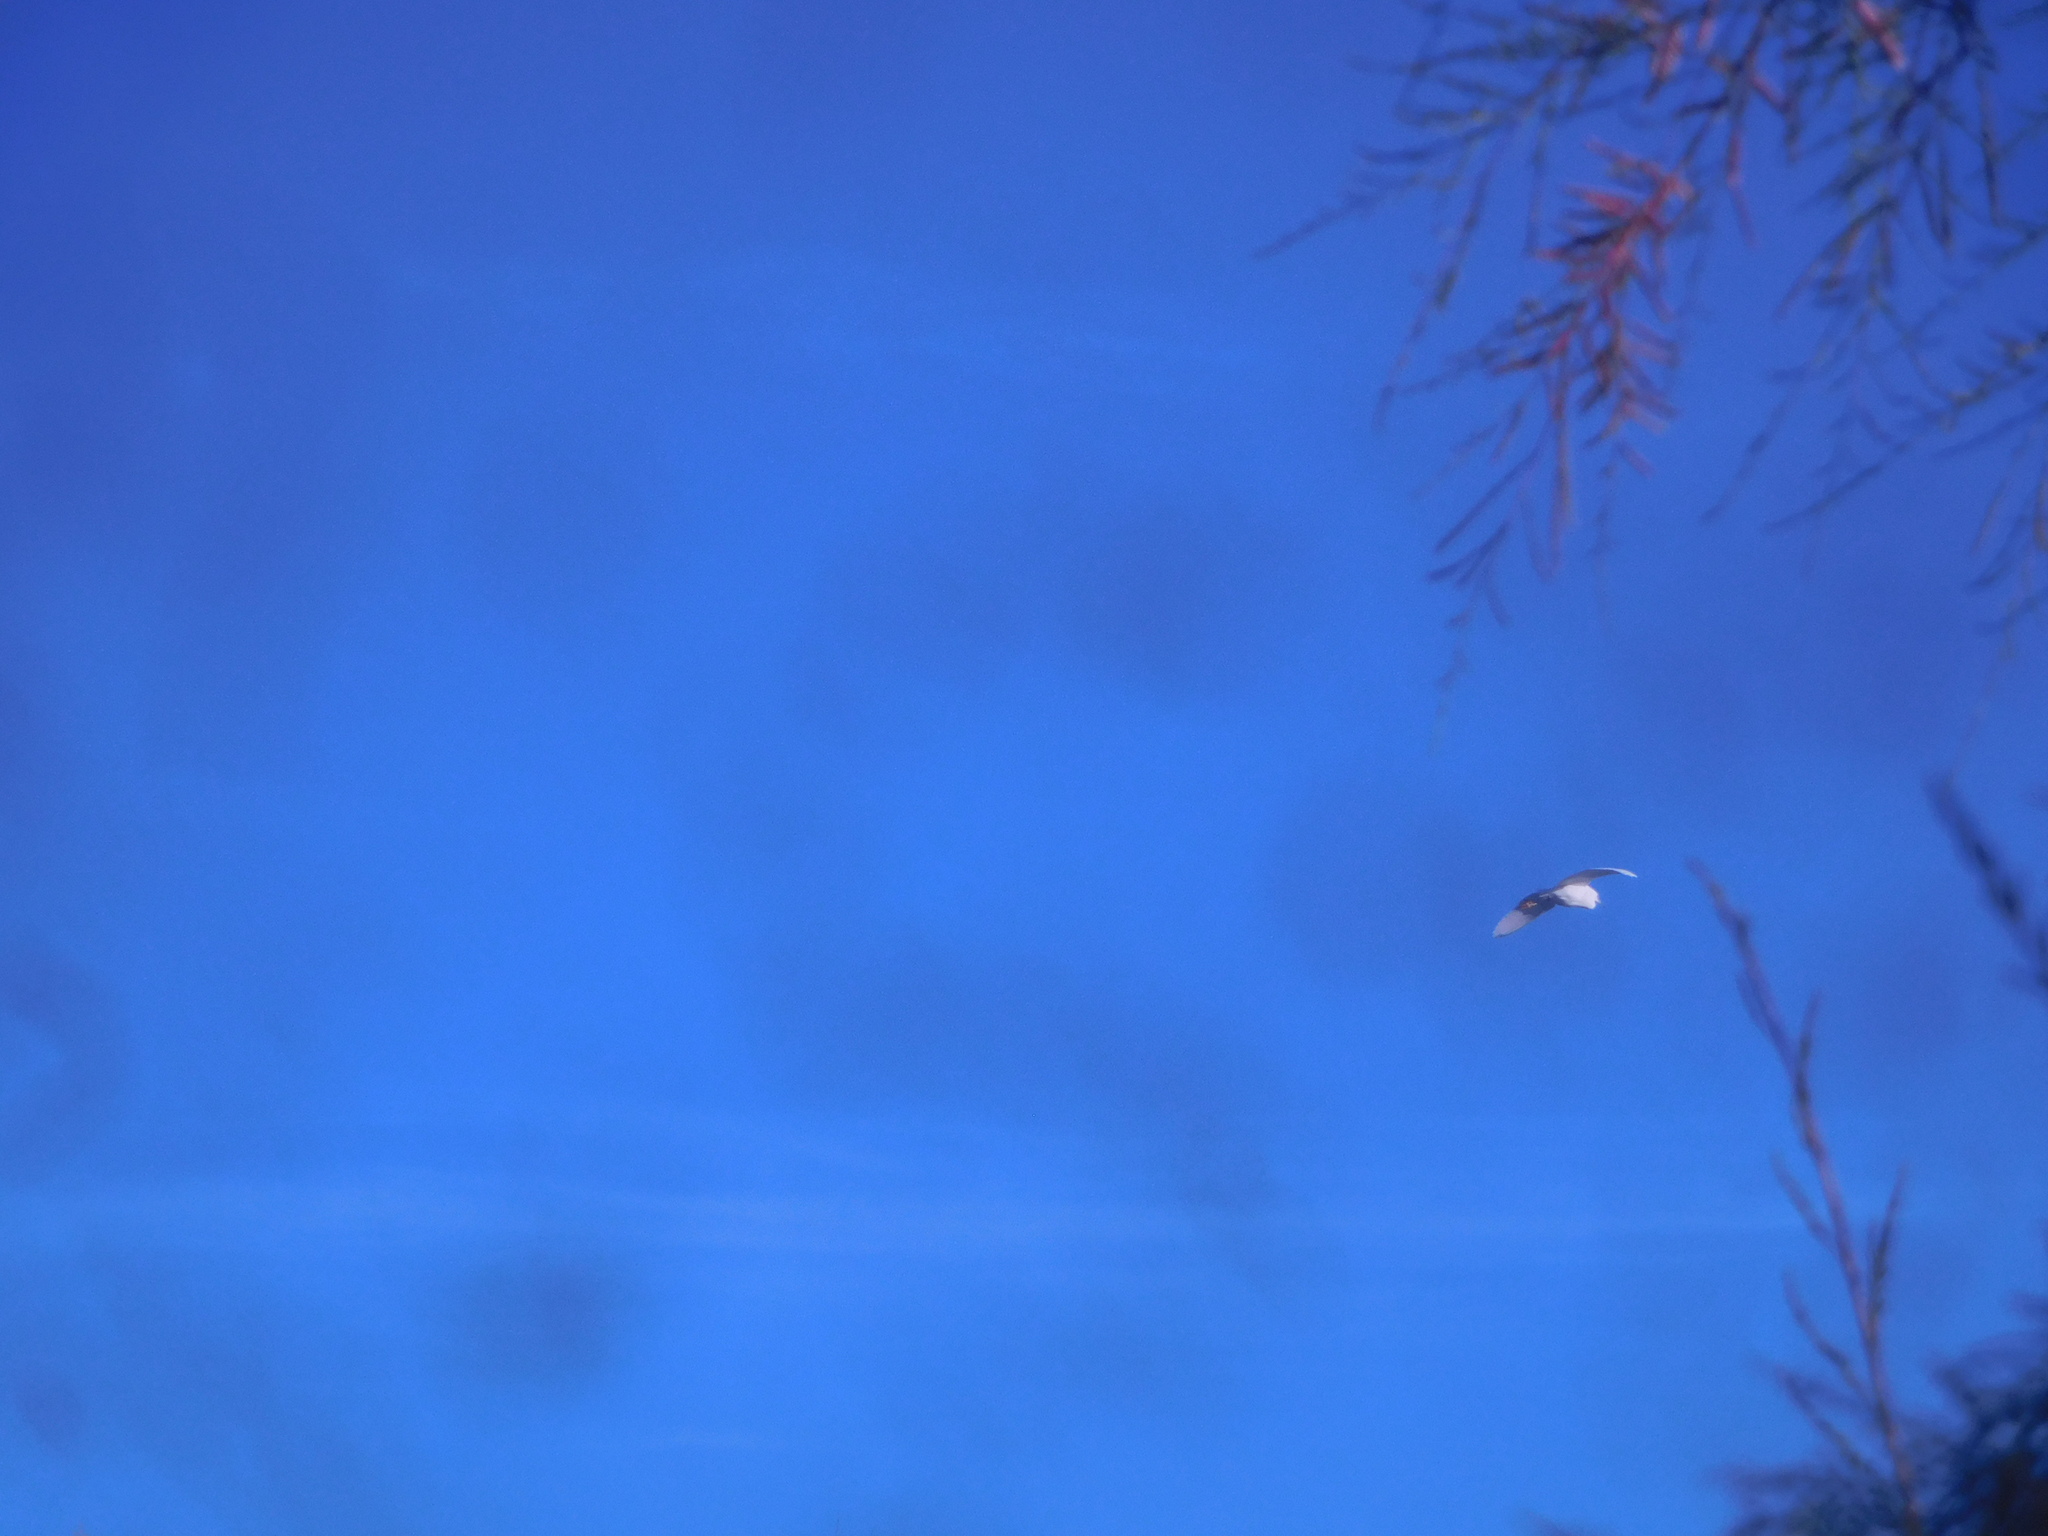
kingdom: Animalia
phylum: Chordata
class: Aves
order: Pelecaniformes
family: Ardeidae
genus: Ardea
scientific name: Ardea alba
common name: Great egret
